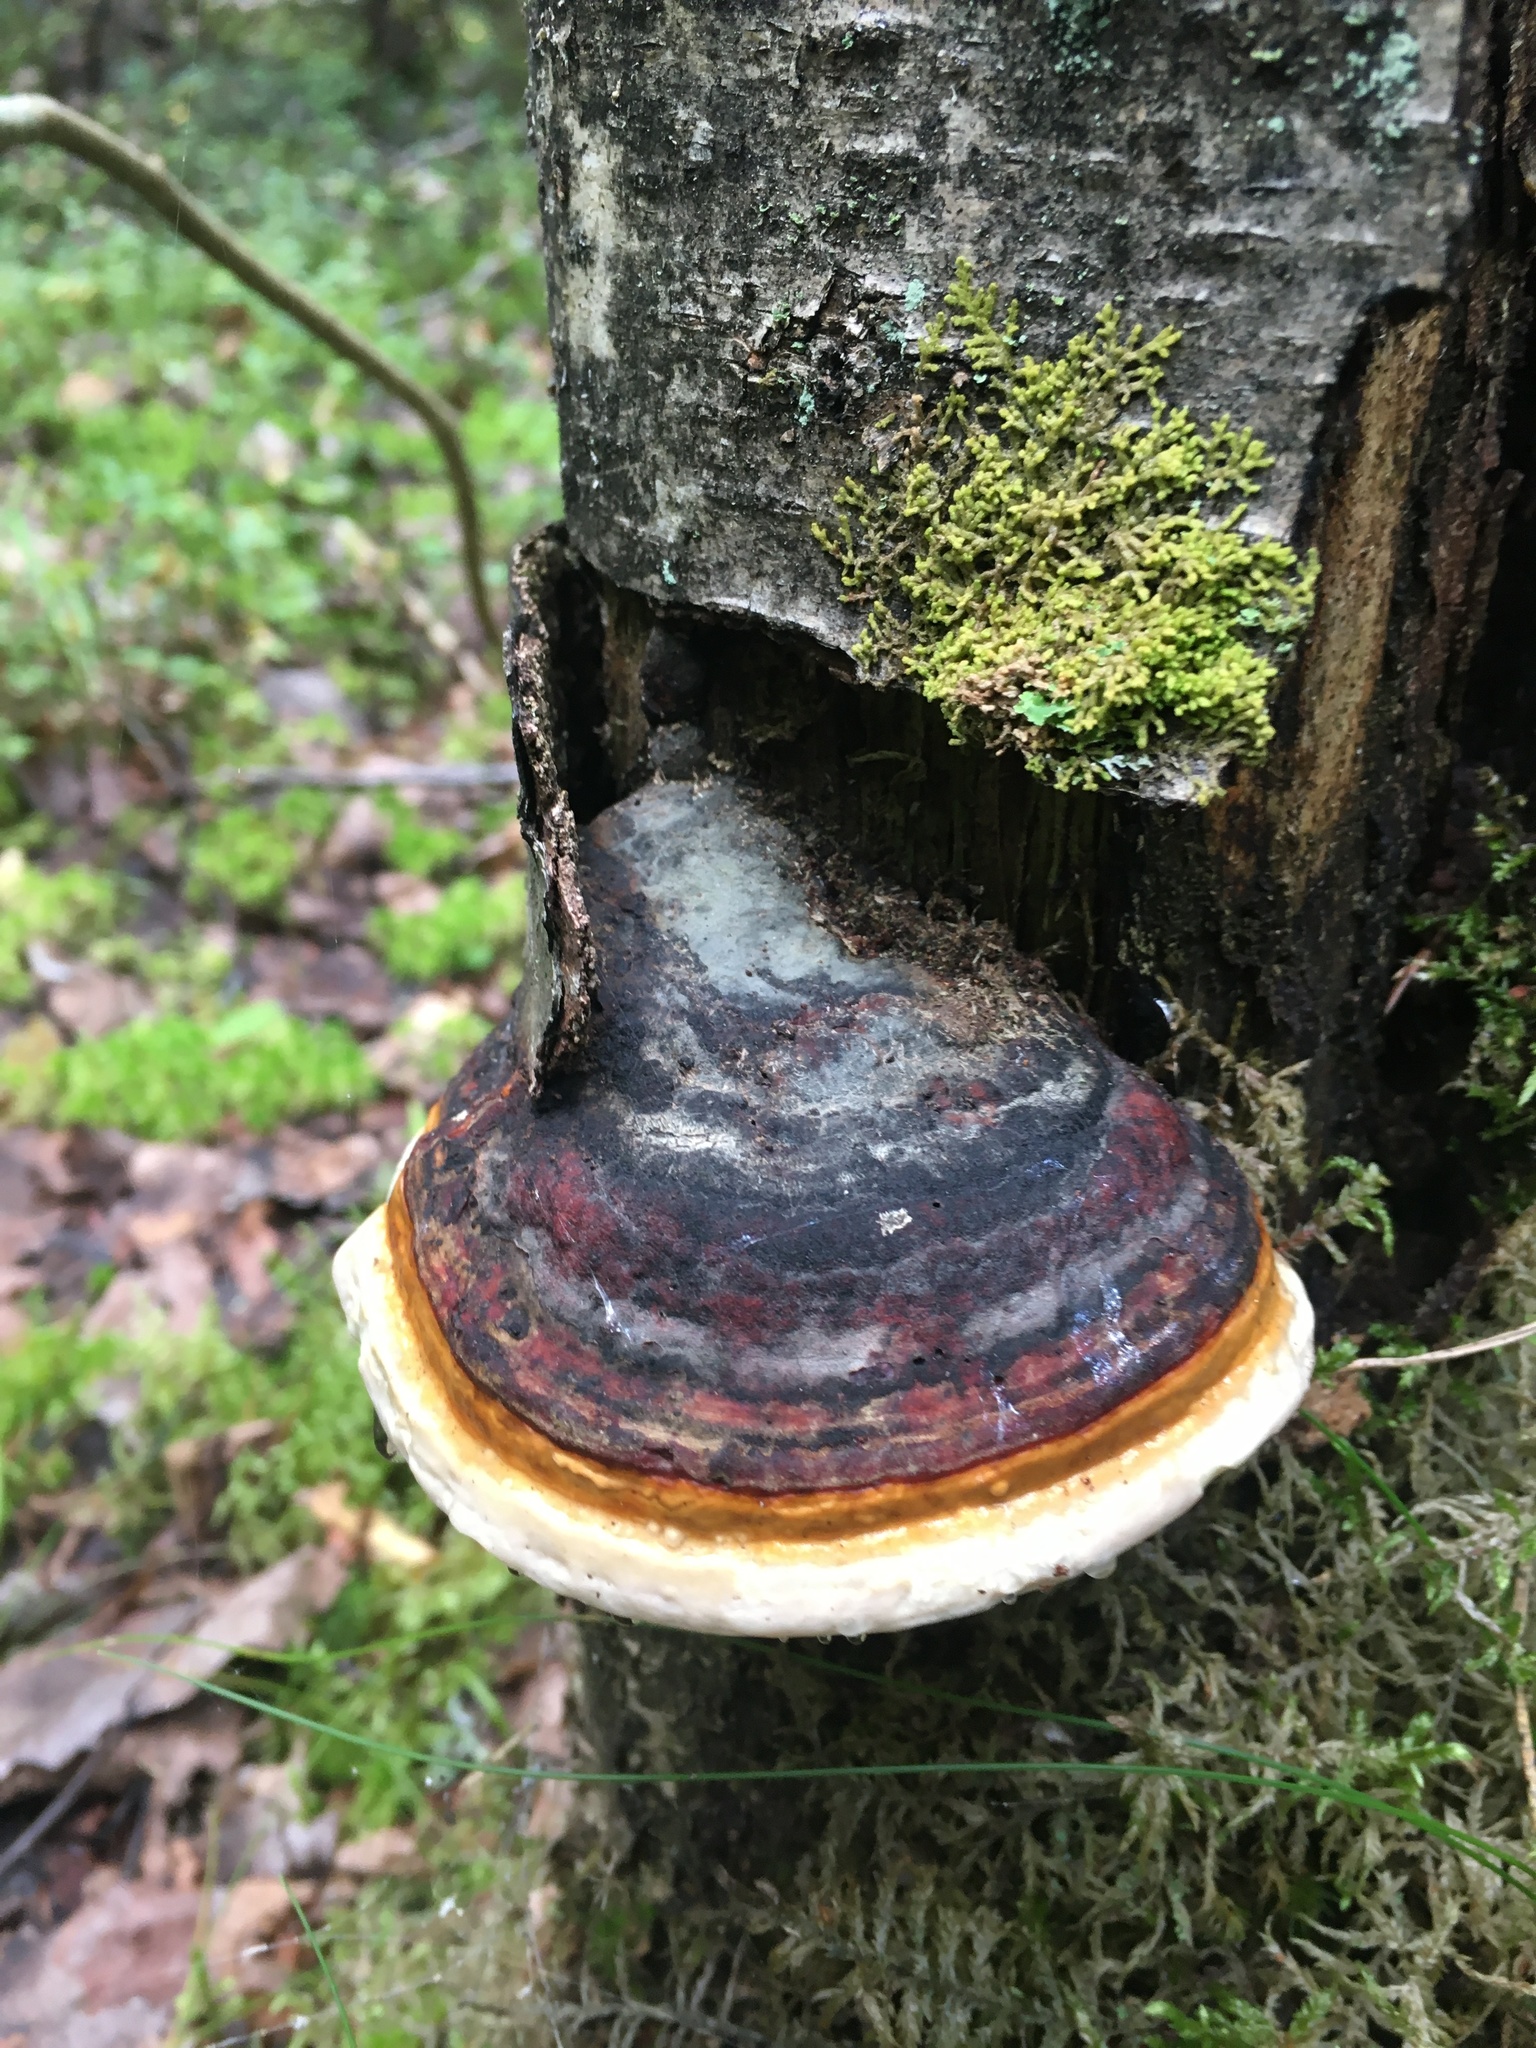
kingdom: Fungi
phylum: Basidiomycota
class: Agaricomycetes
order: Polyporales
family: Fomitopsidaceae
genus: Fomitopsis
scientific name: Fomitopsis pinicola
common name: Red-belted bracket
